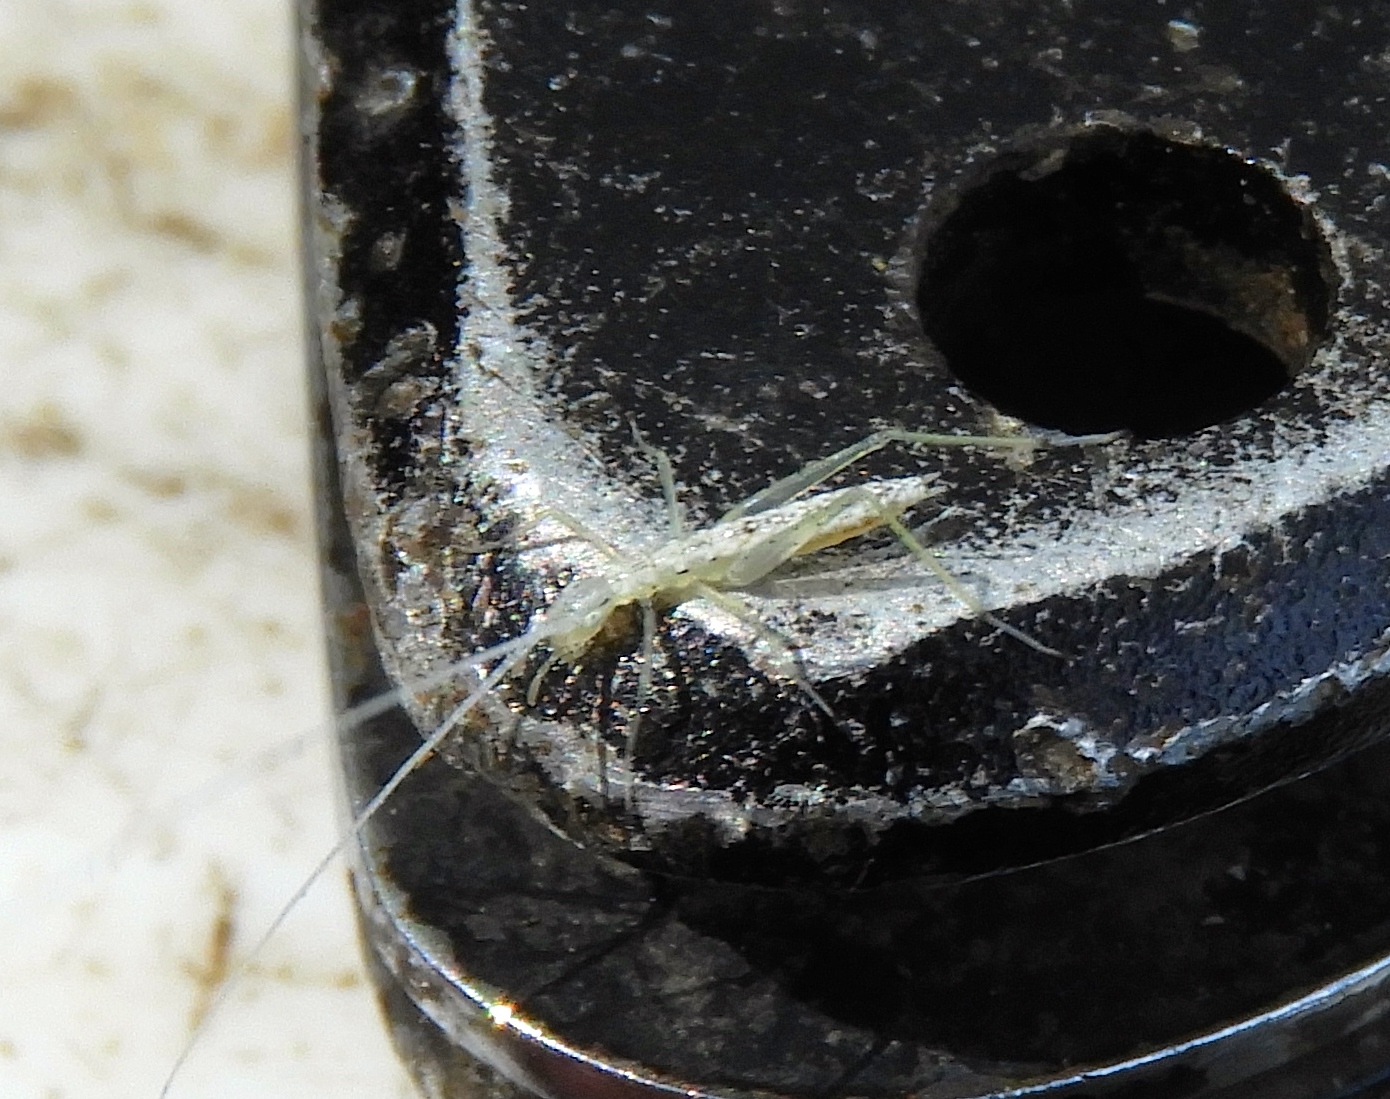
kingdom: Animalia
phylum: Arthropoda
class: Insecta
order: Orthoptera
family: Gryllidae
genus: Oecanthus
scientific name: Oecanthus
